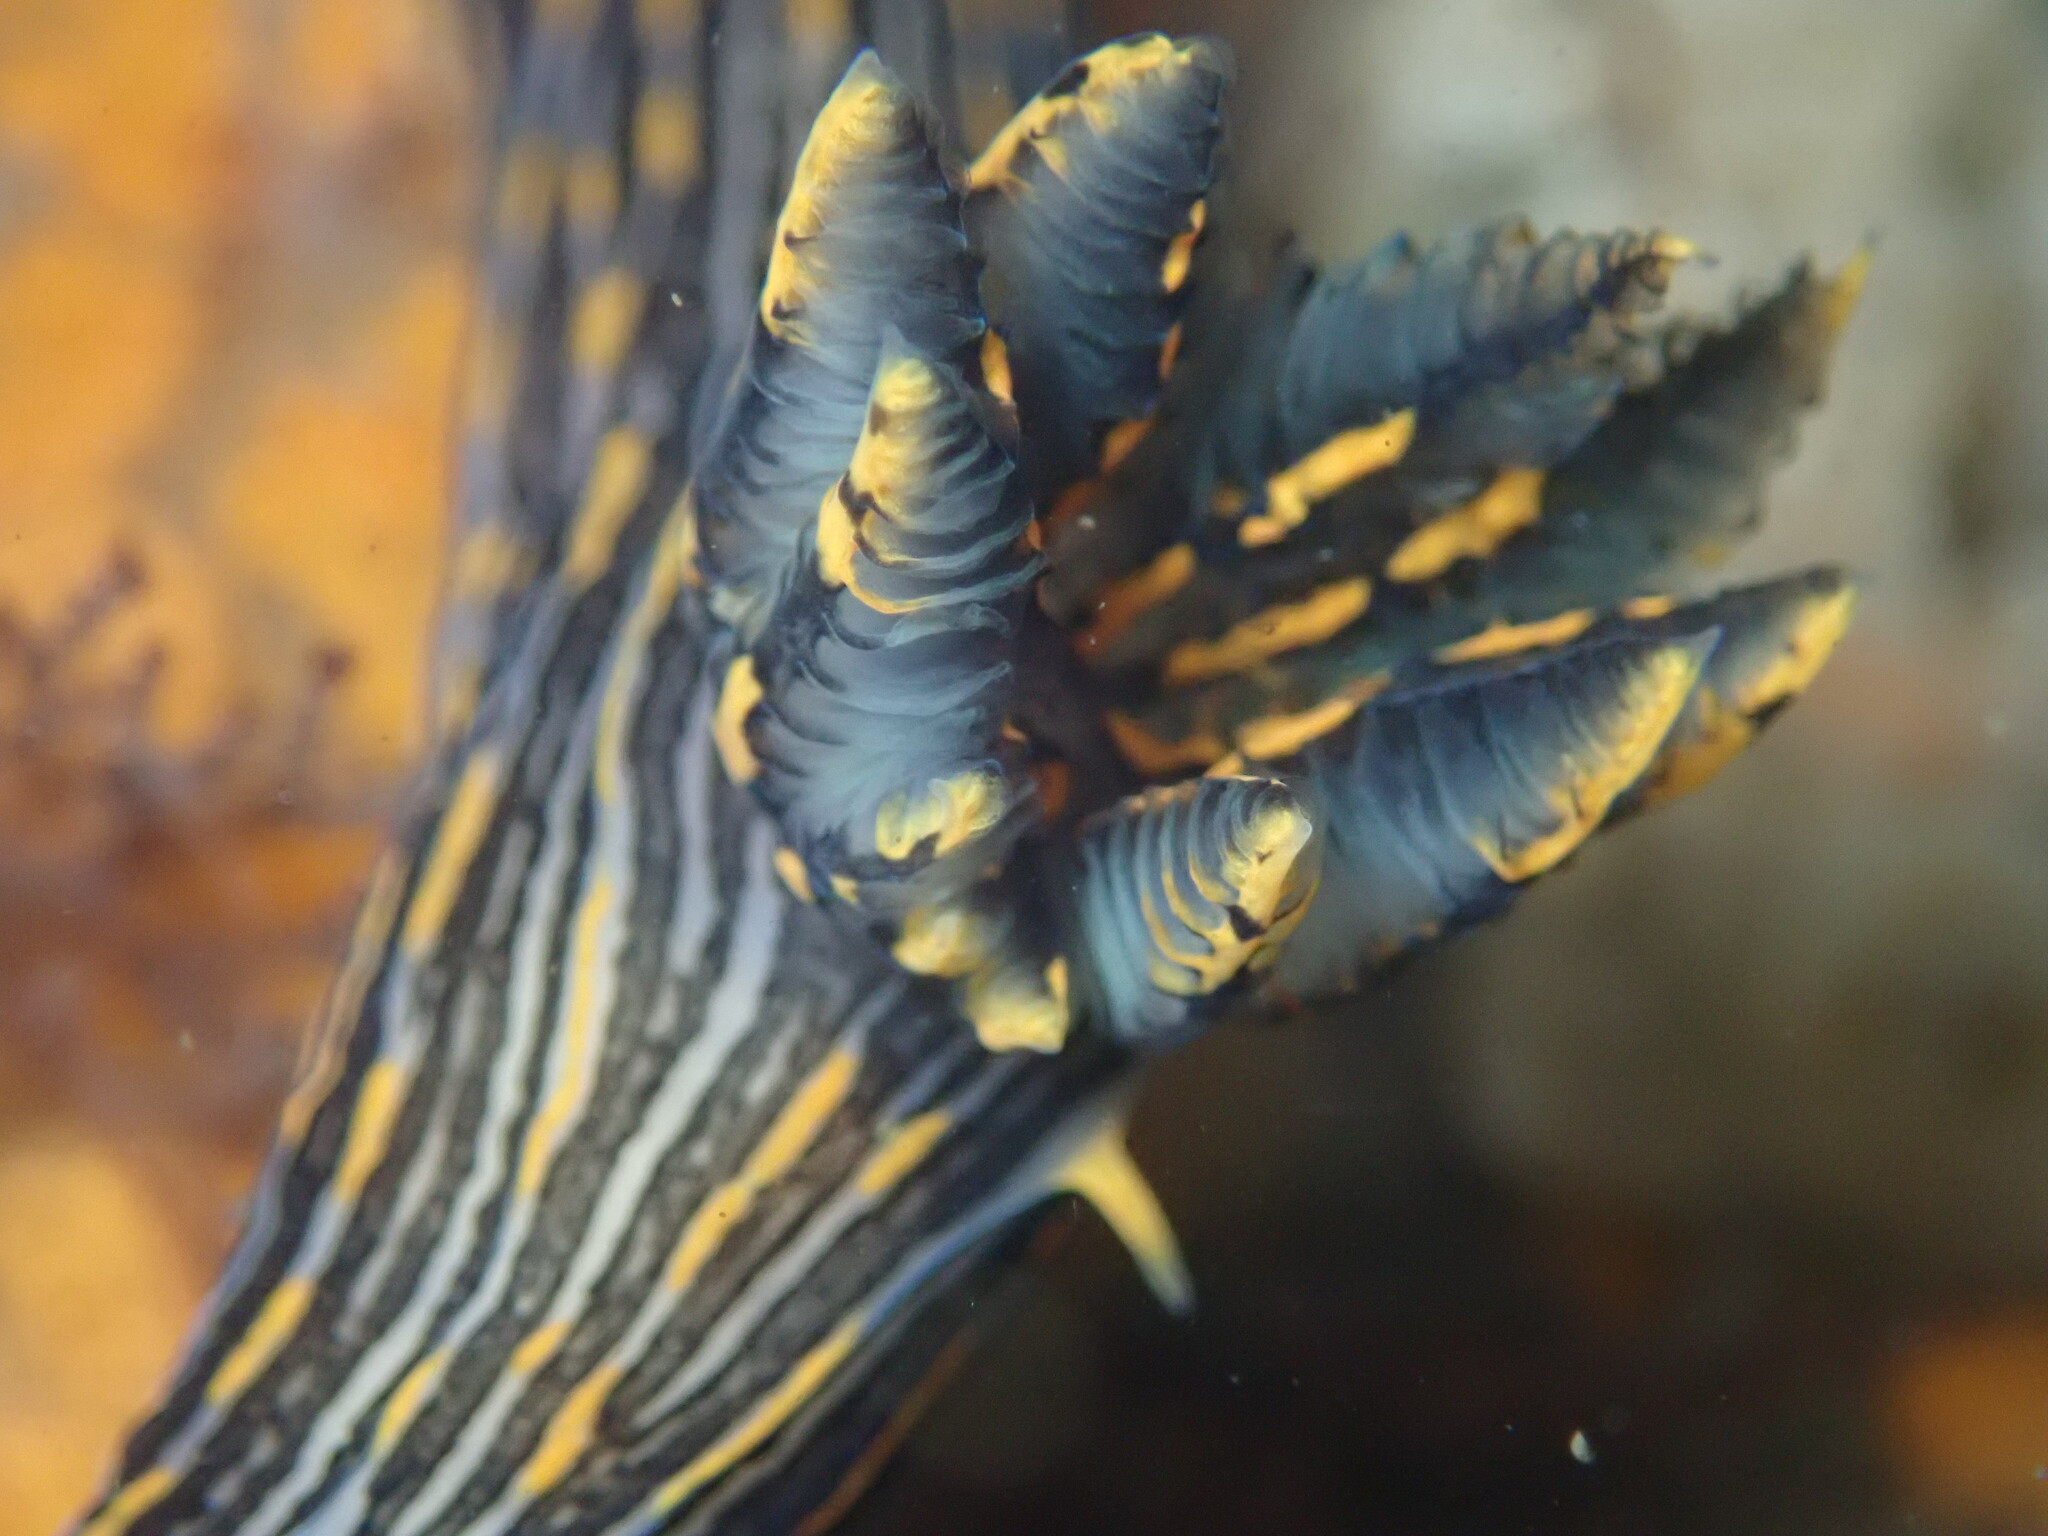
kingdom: Animalia
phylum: Mollusca
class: Gastropoda
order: Nudibranchia
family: Polyceridae
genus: Polycera
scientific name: Polycera atra
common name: Orange-spike polycera
